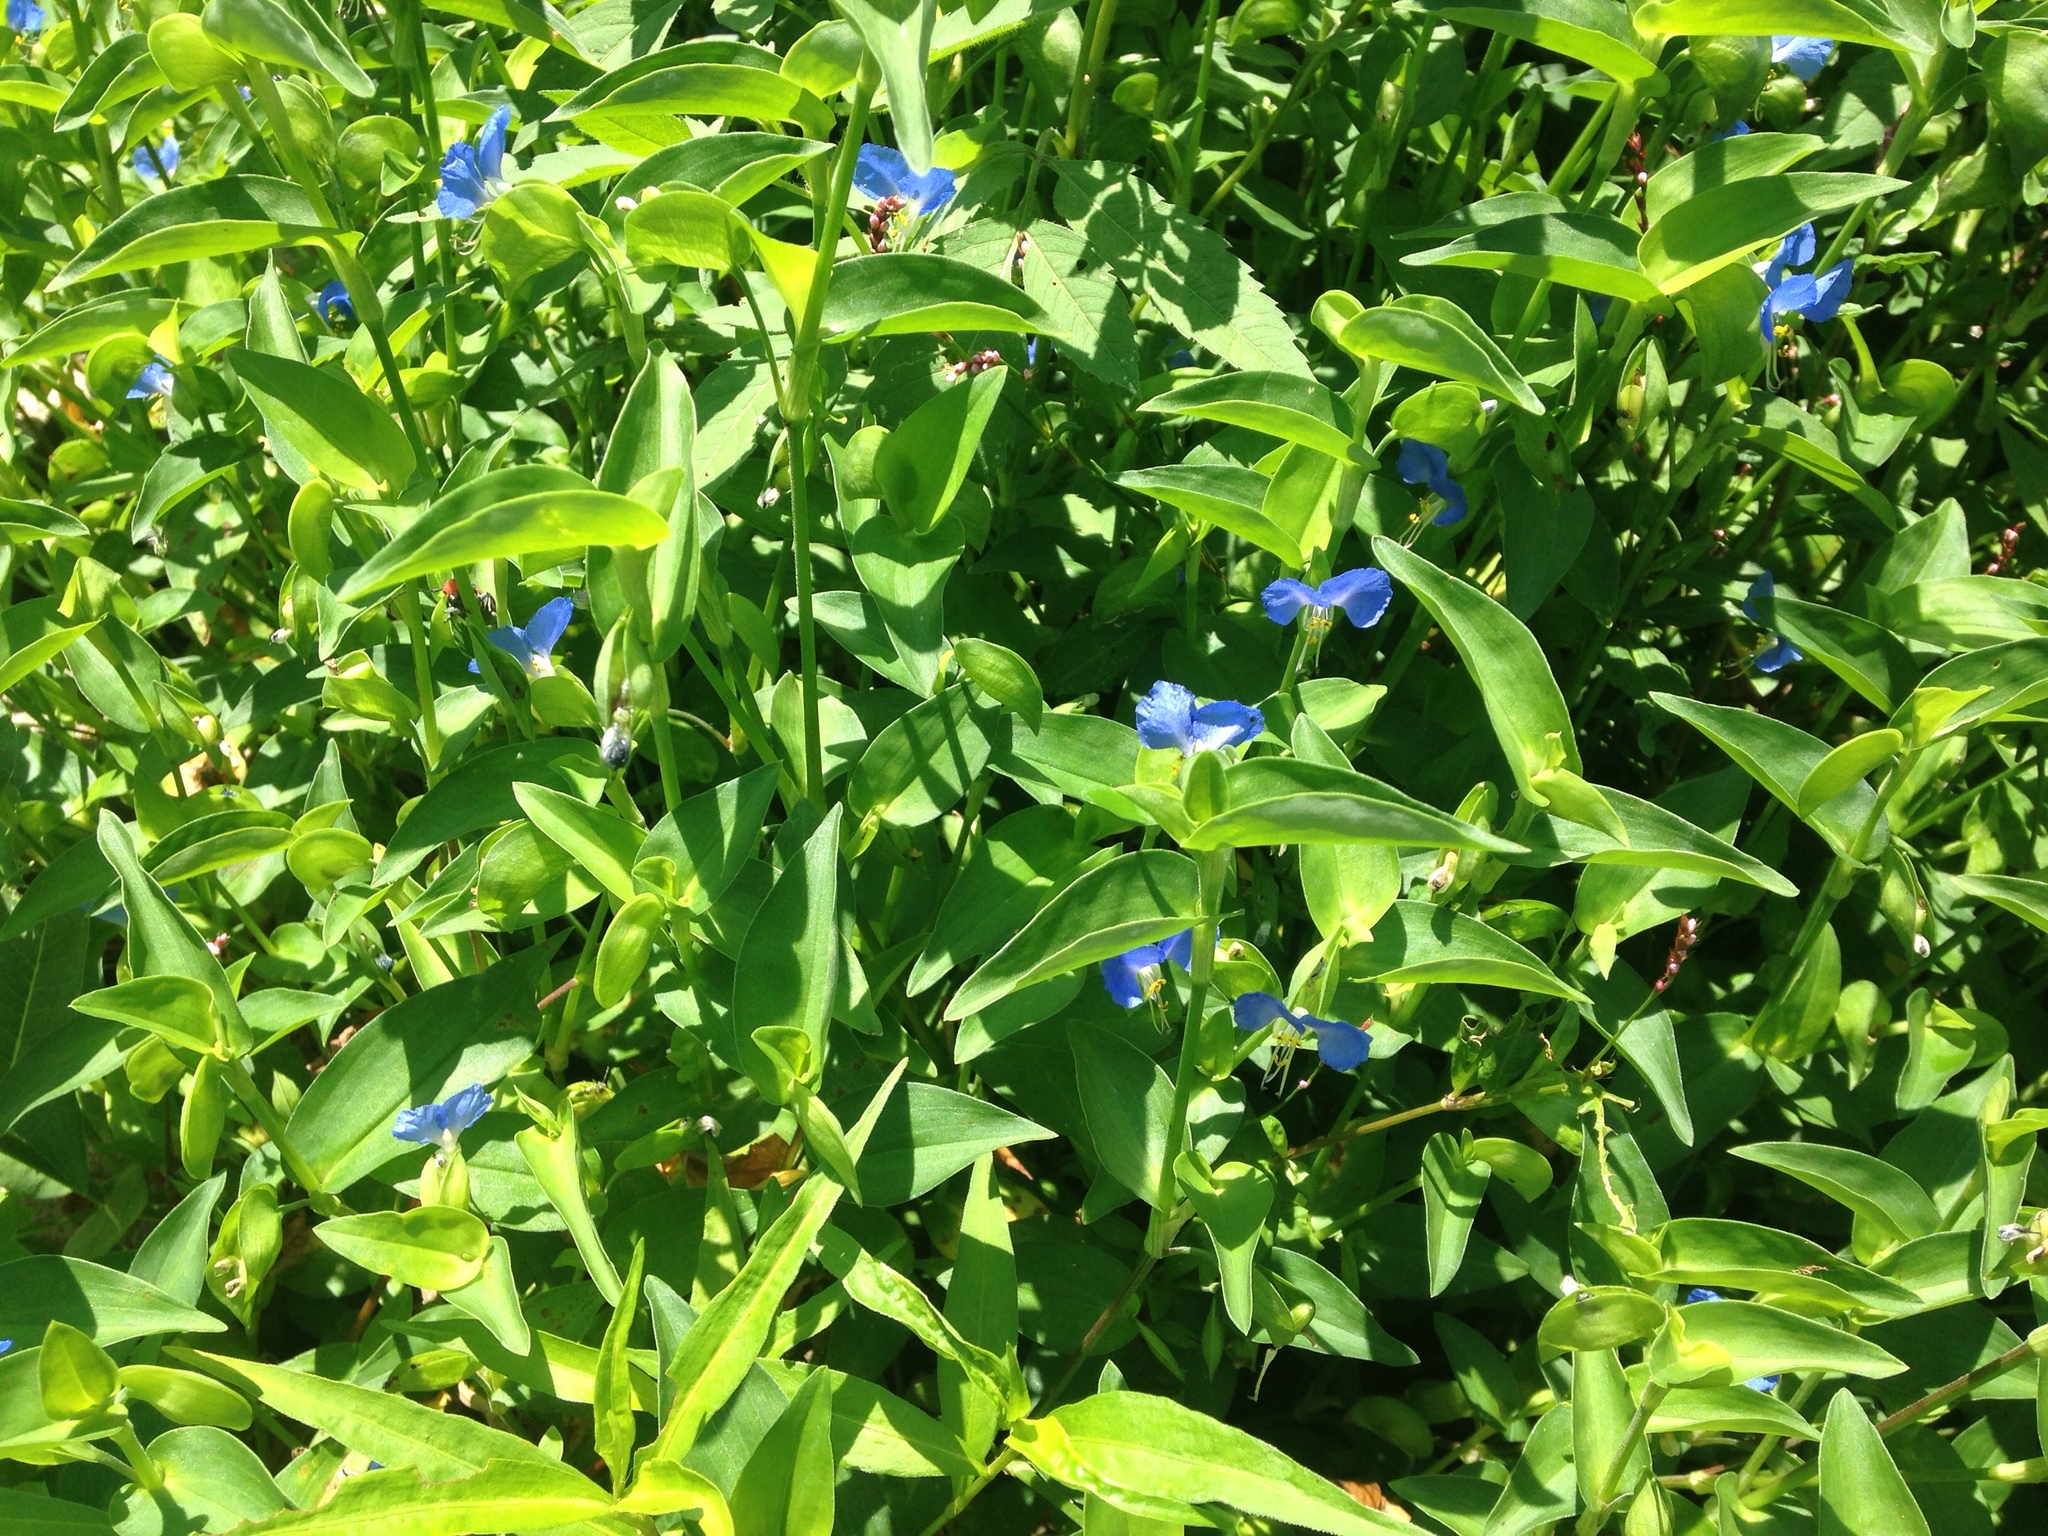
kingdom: Plantae
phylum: Tracheophyta
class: Liliopsida
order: Commelinales
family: Commelinaceae
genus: Commelina
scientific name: Commelina communis
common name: Asiatic dayflower
